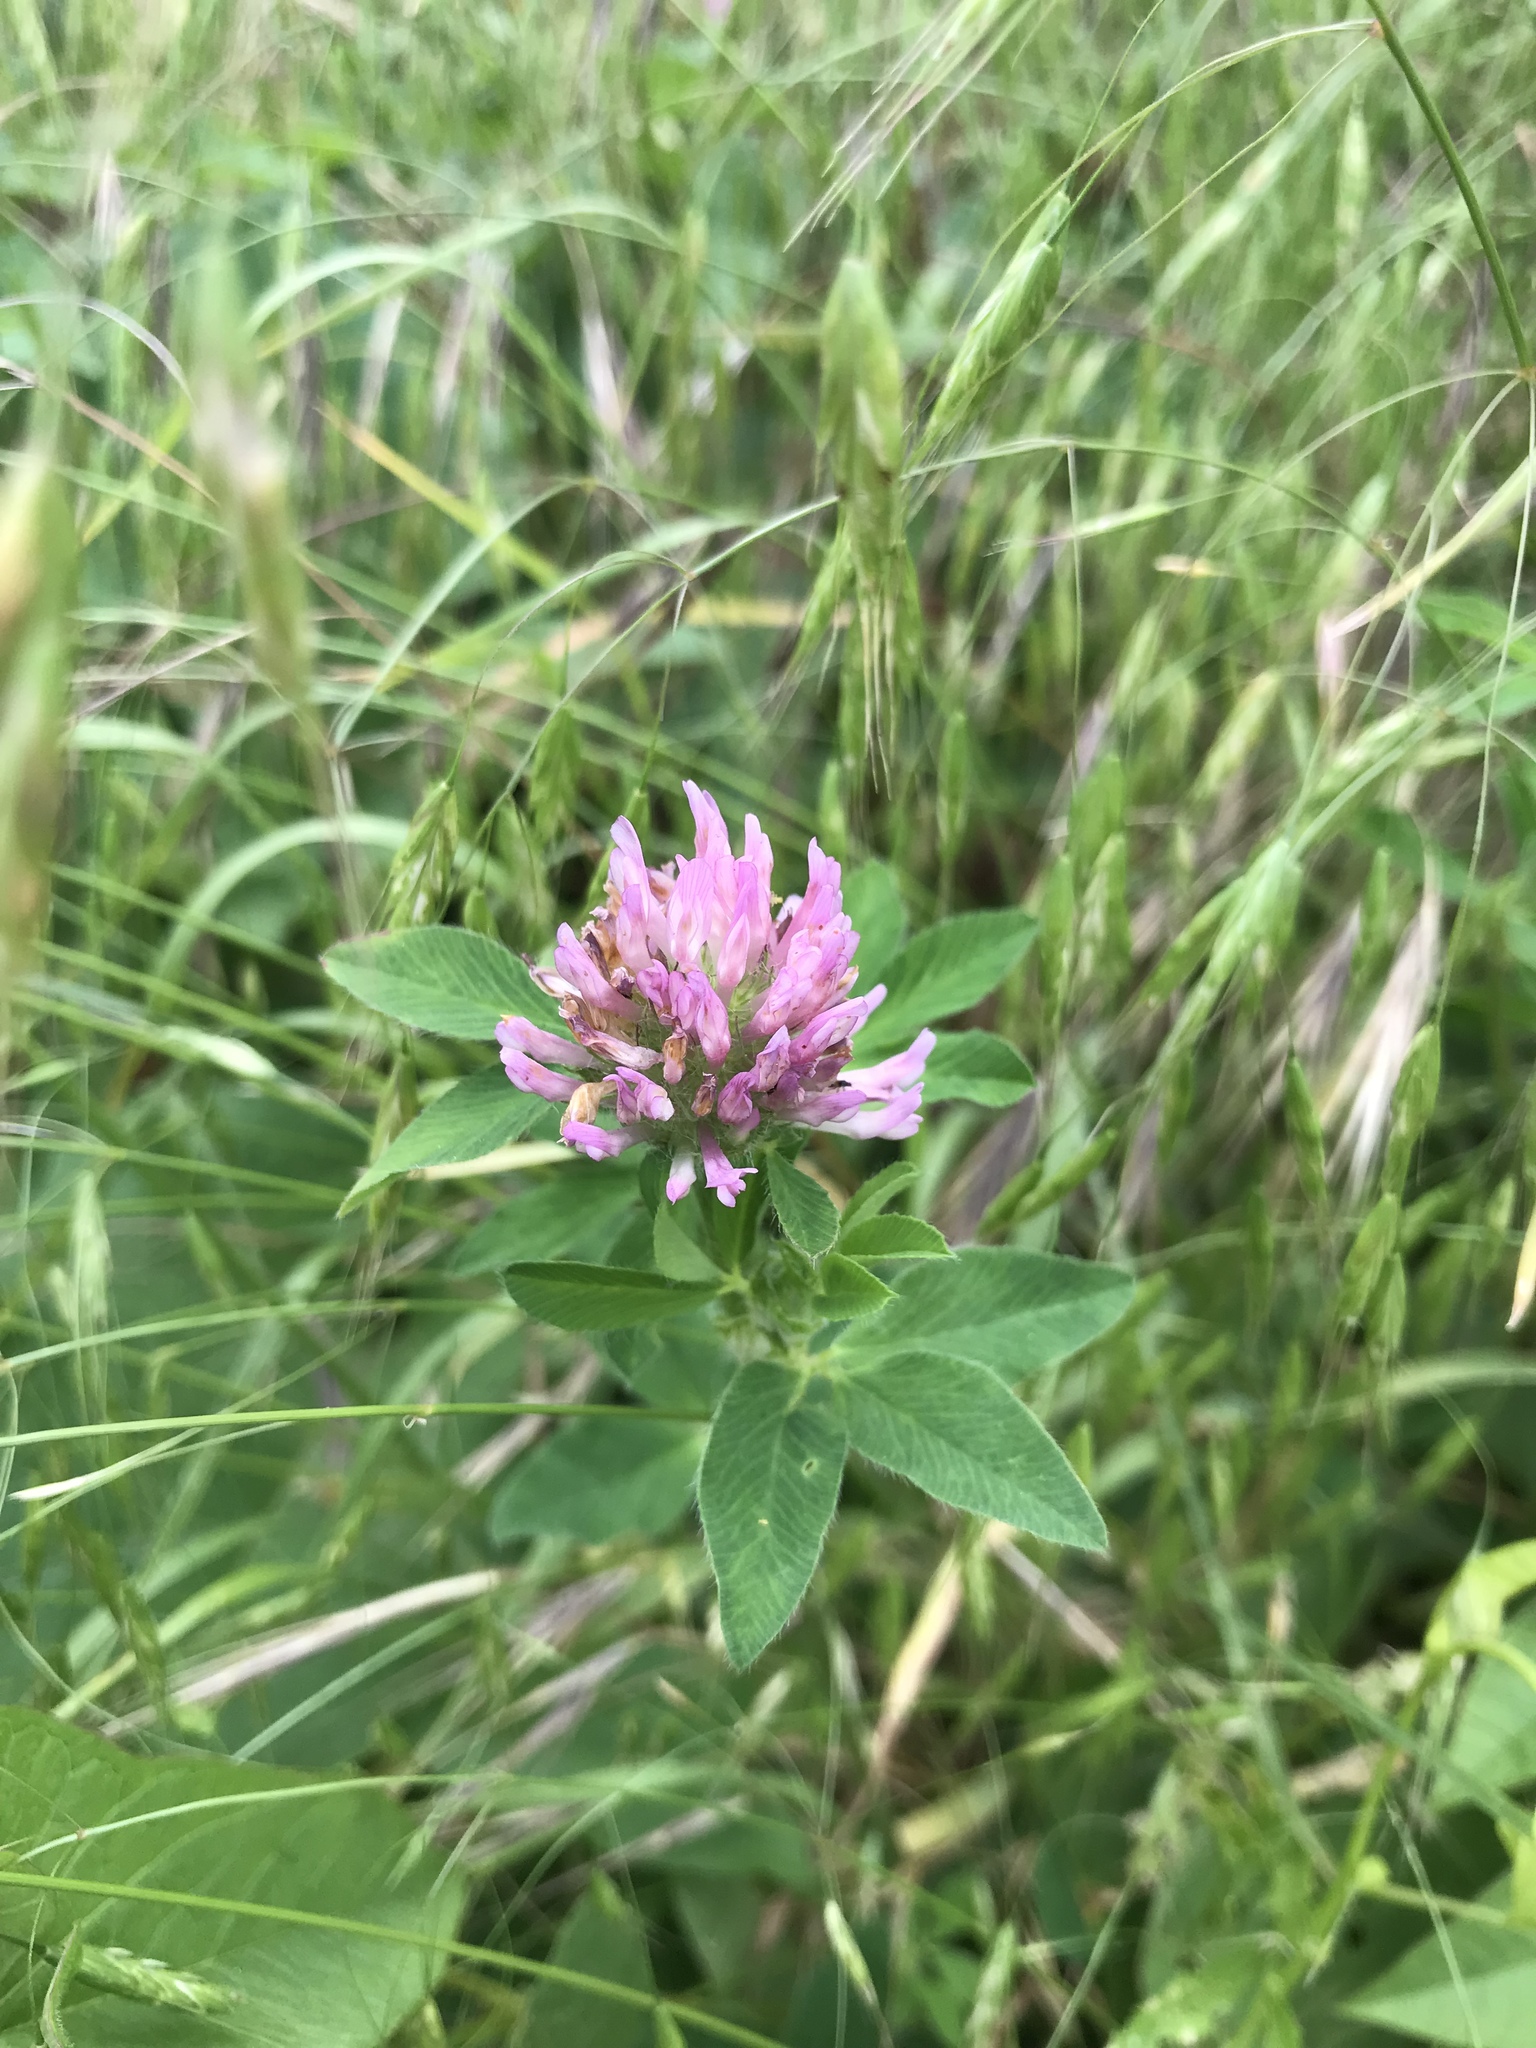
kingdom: Plantae
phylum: Tracheophyta
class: Magnoliopsida
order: Fabales
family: Fabaceae
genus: Trifolium
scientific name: Trifolium pratense
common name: Red clover
